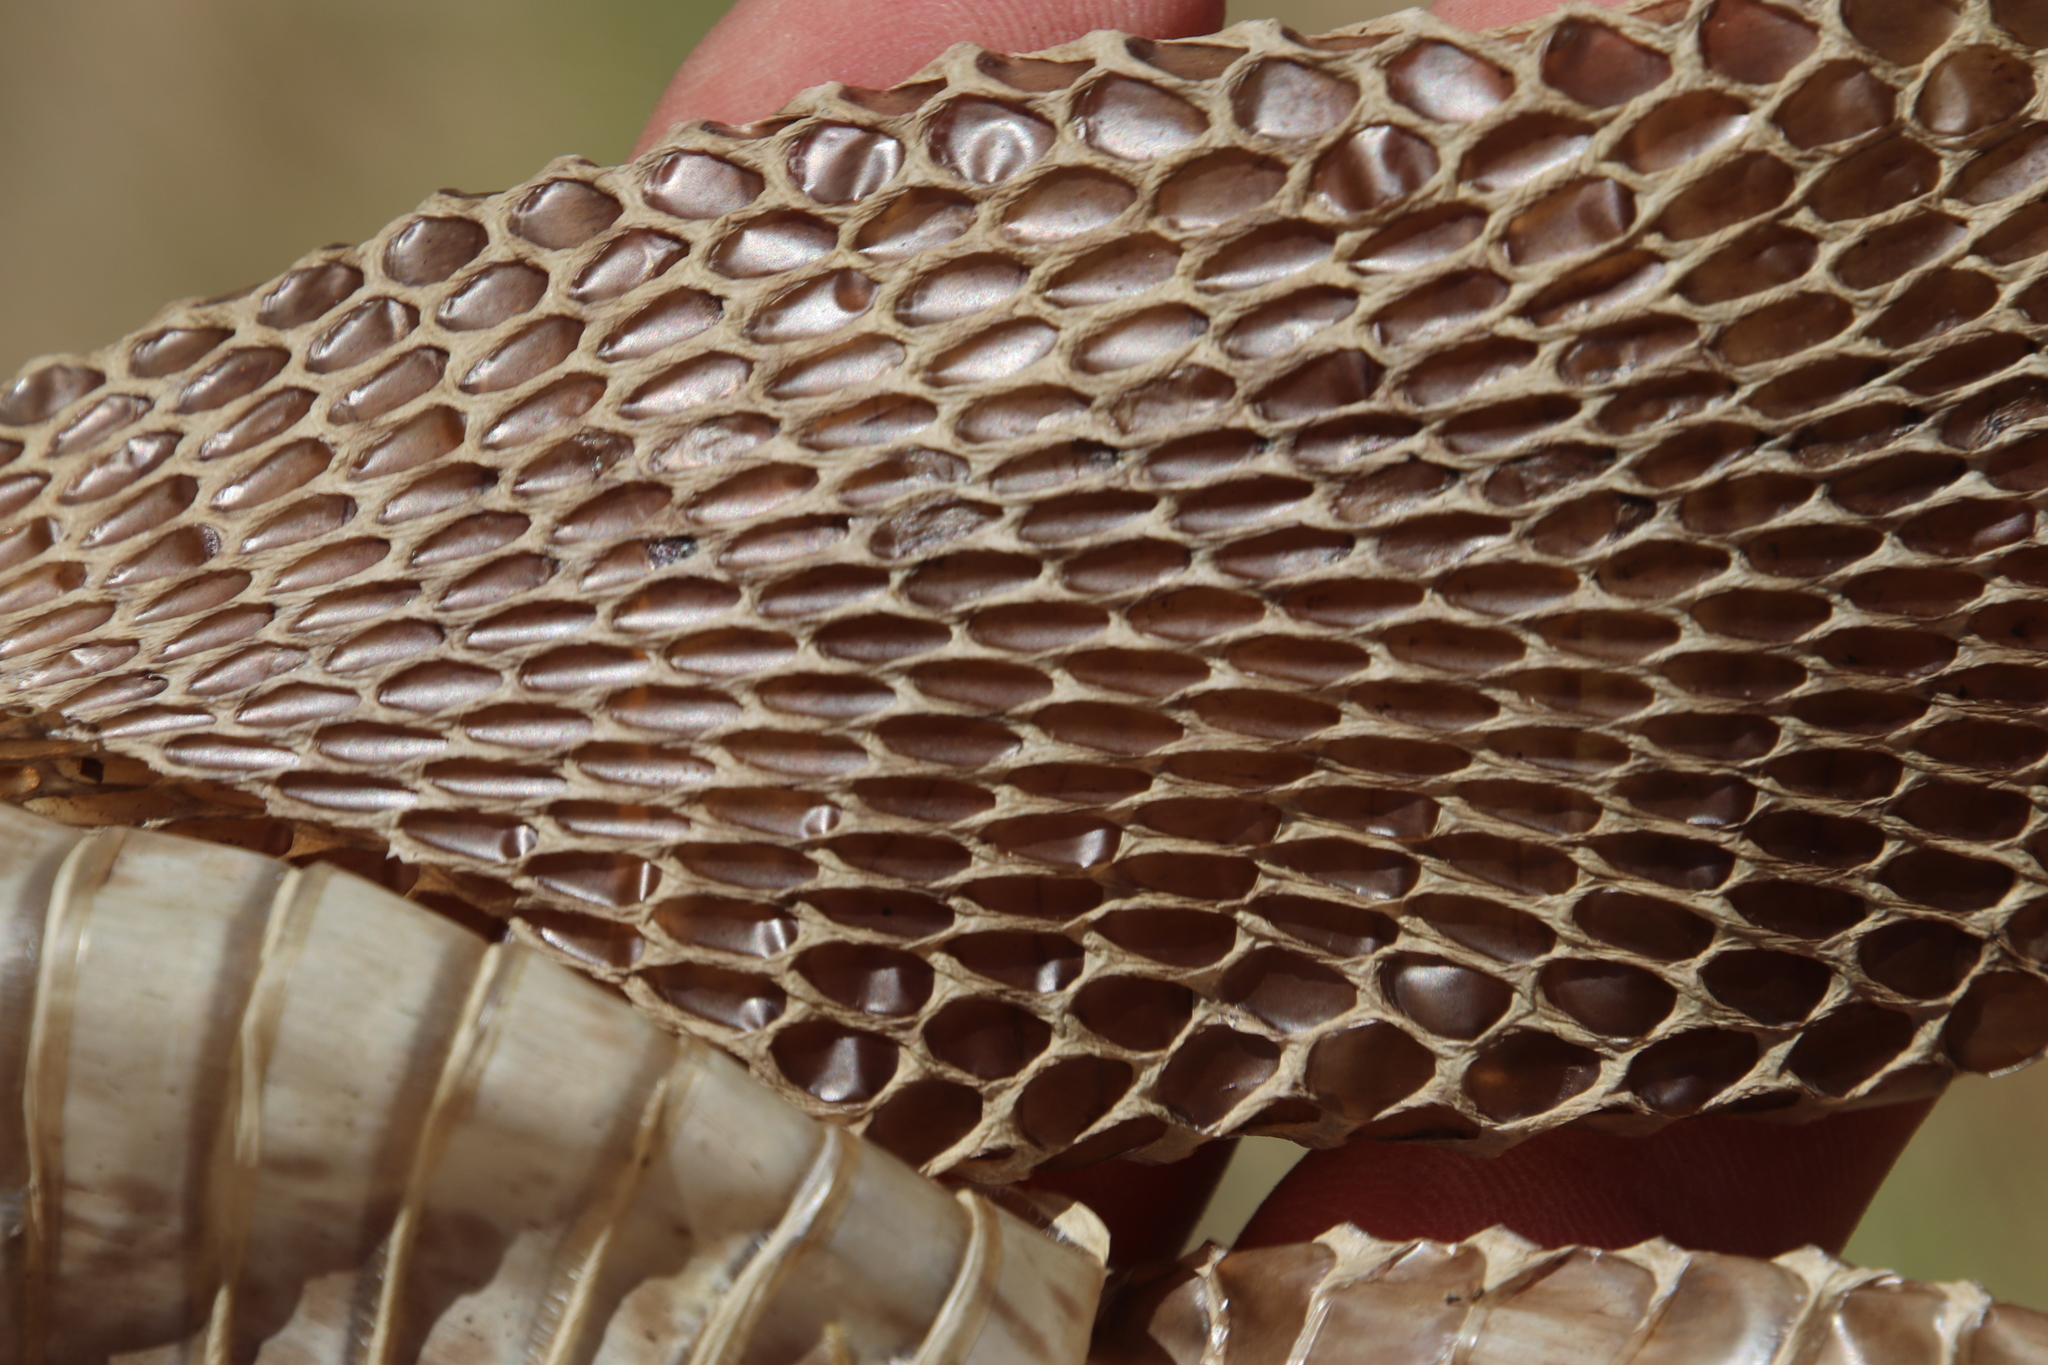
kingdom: Animalia
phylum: Chordata
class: Squamata
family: Elapidae
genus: Naja
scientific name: Naja nivea
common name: Cape cobra
